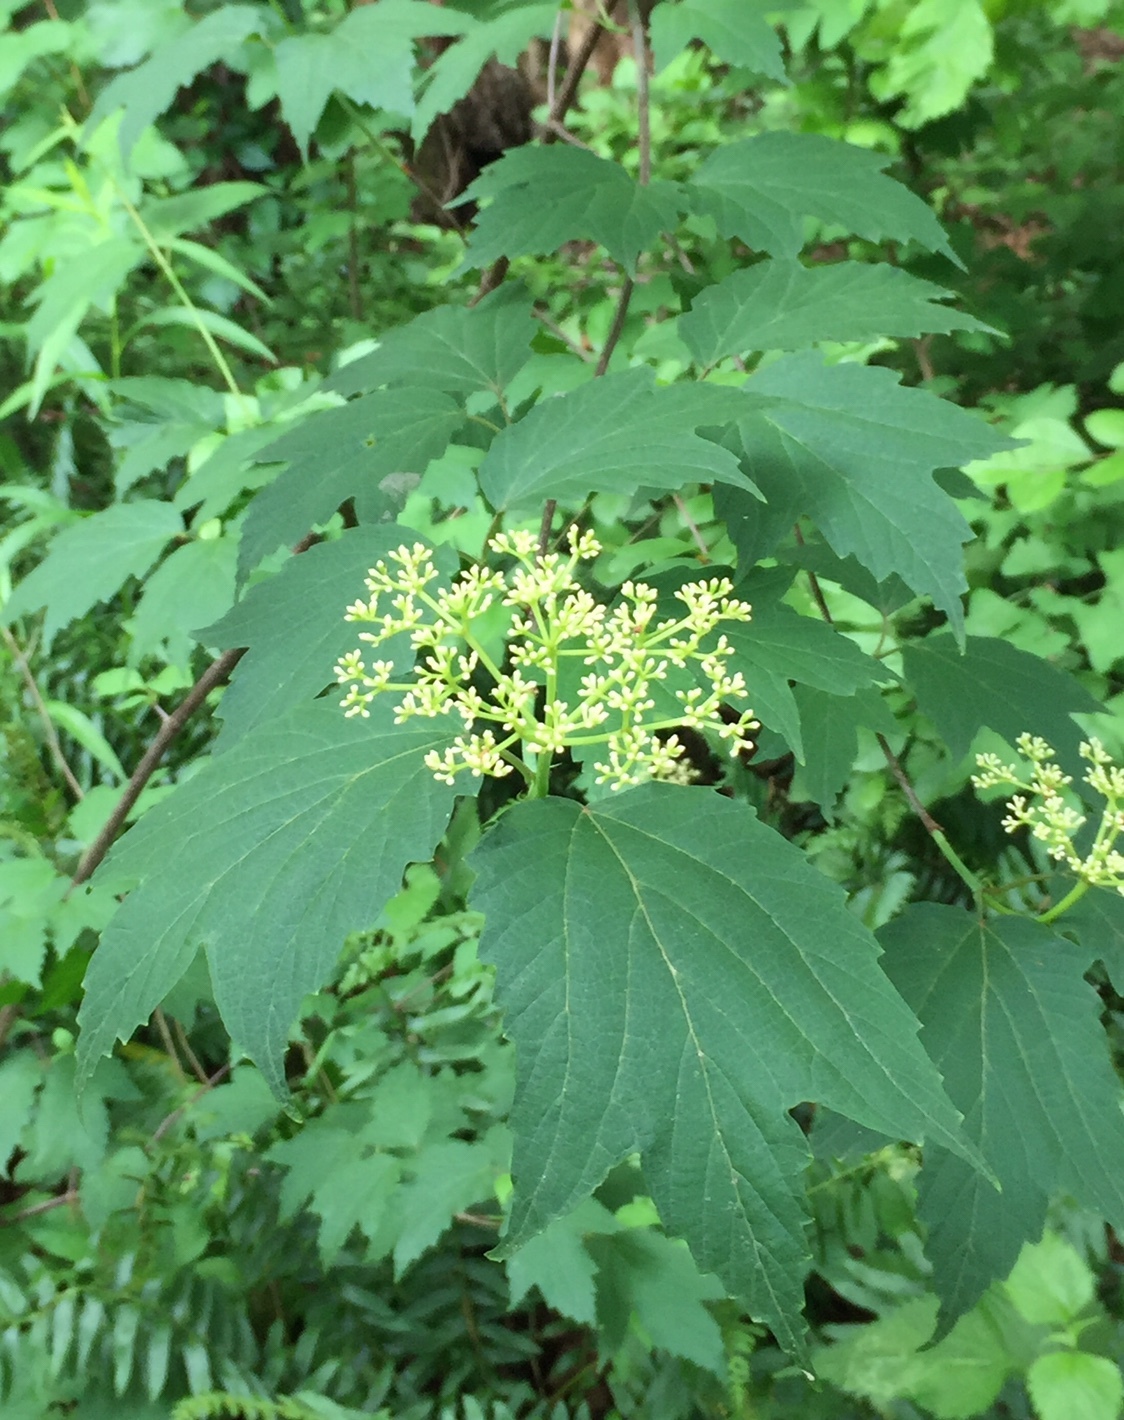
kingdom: Plantae
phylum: Tracheophyta
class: Magnoliopsida
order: Dipsacales
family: Viburnaceae
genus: Viburnum
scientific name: Viburnum acerifolium
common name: Dockmackie
